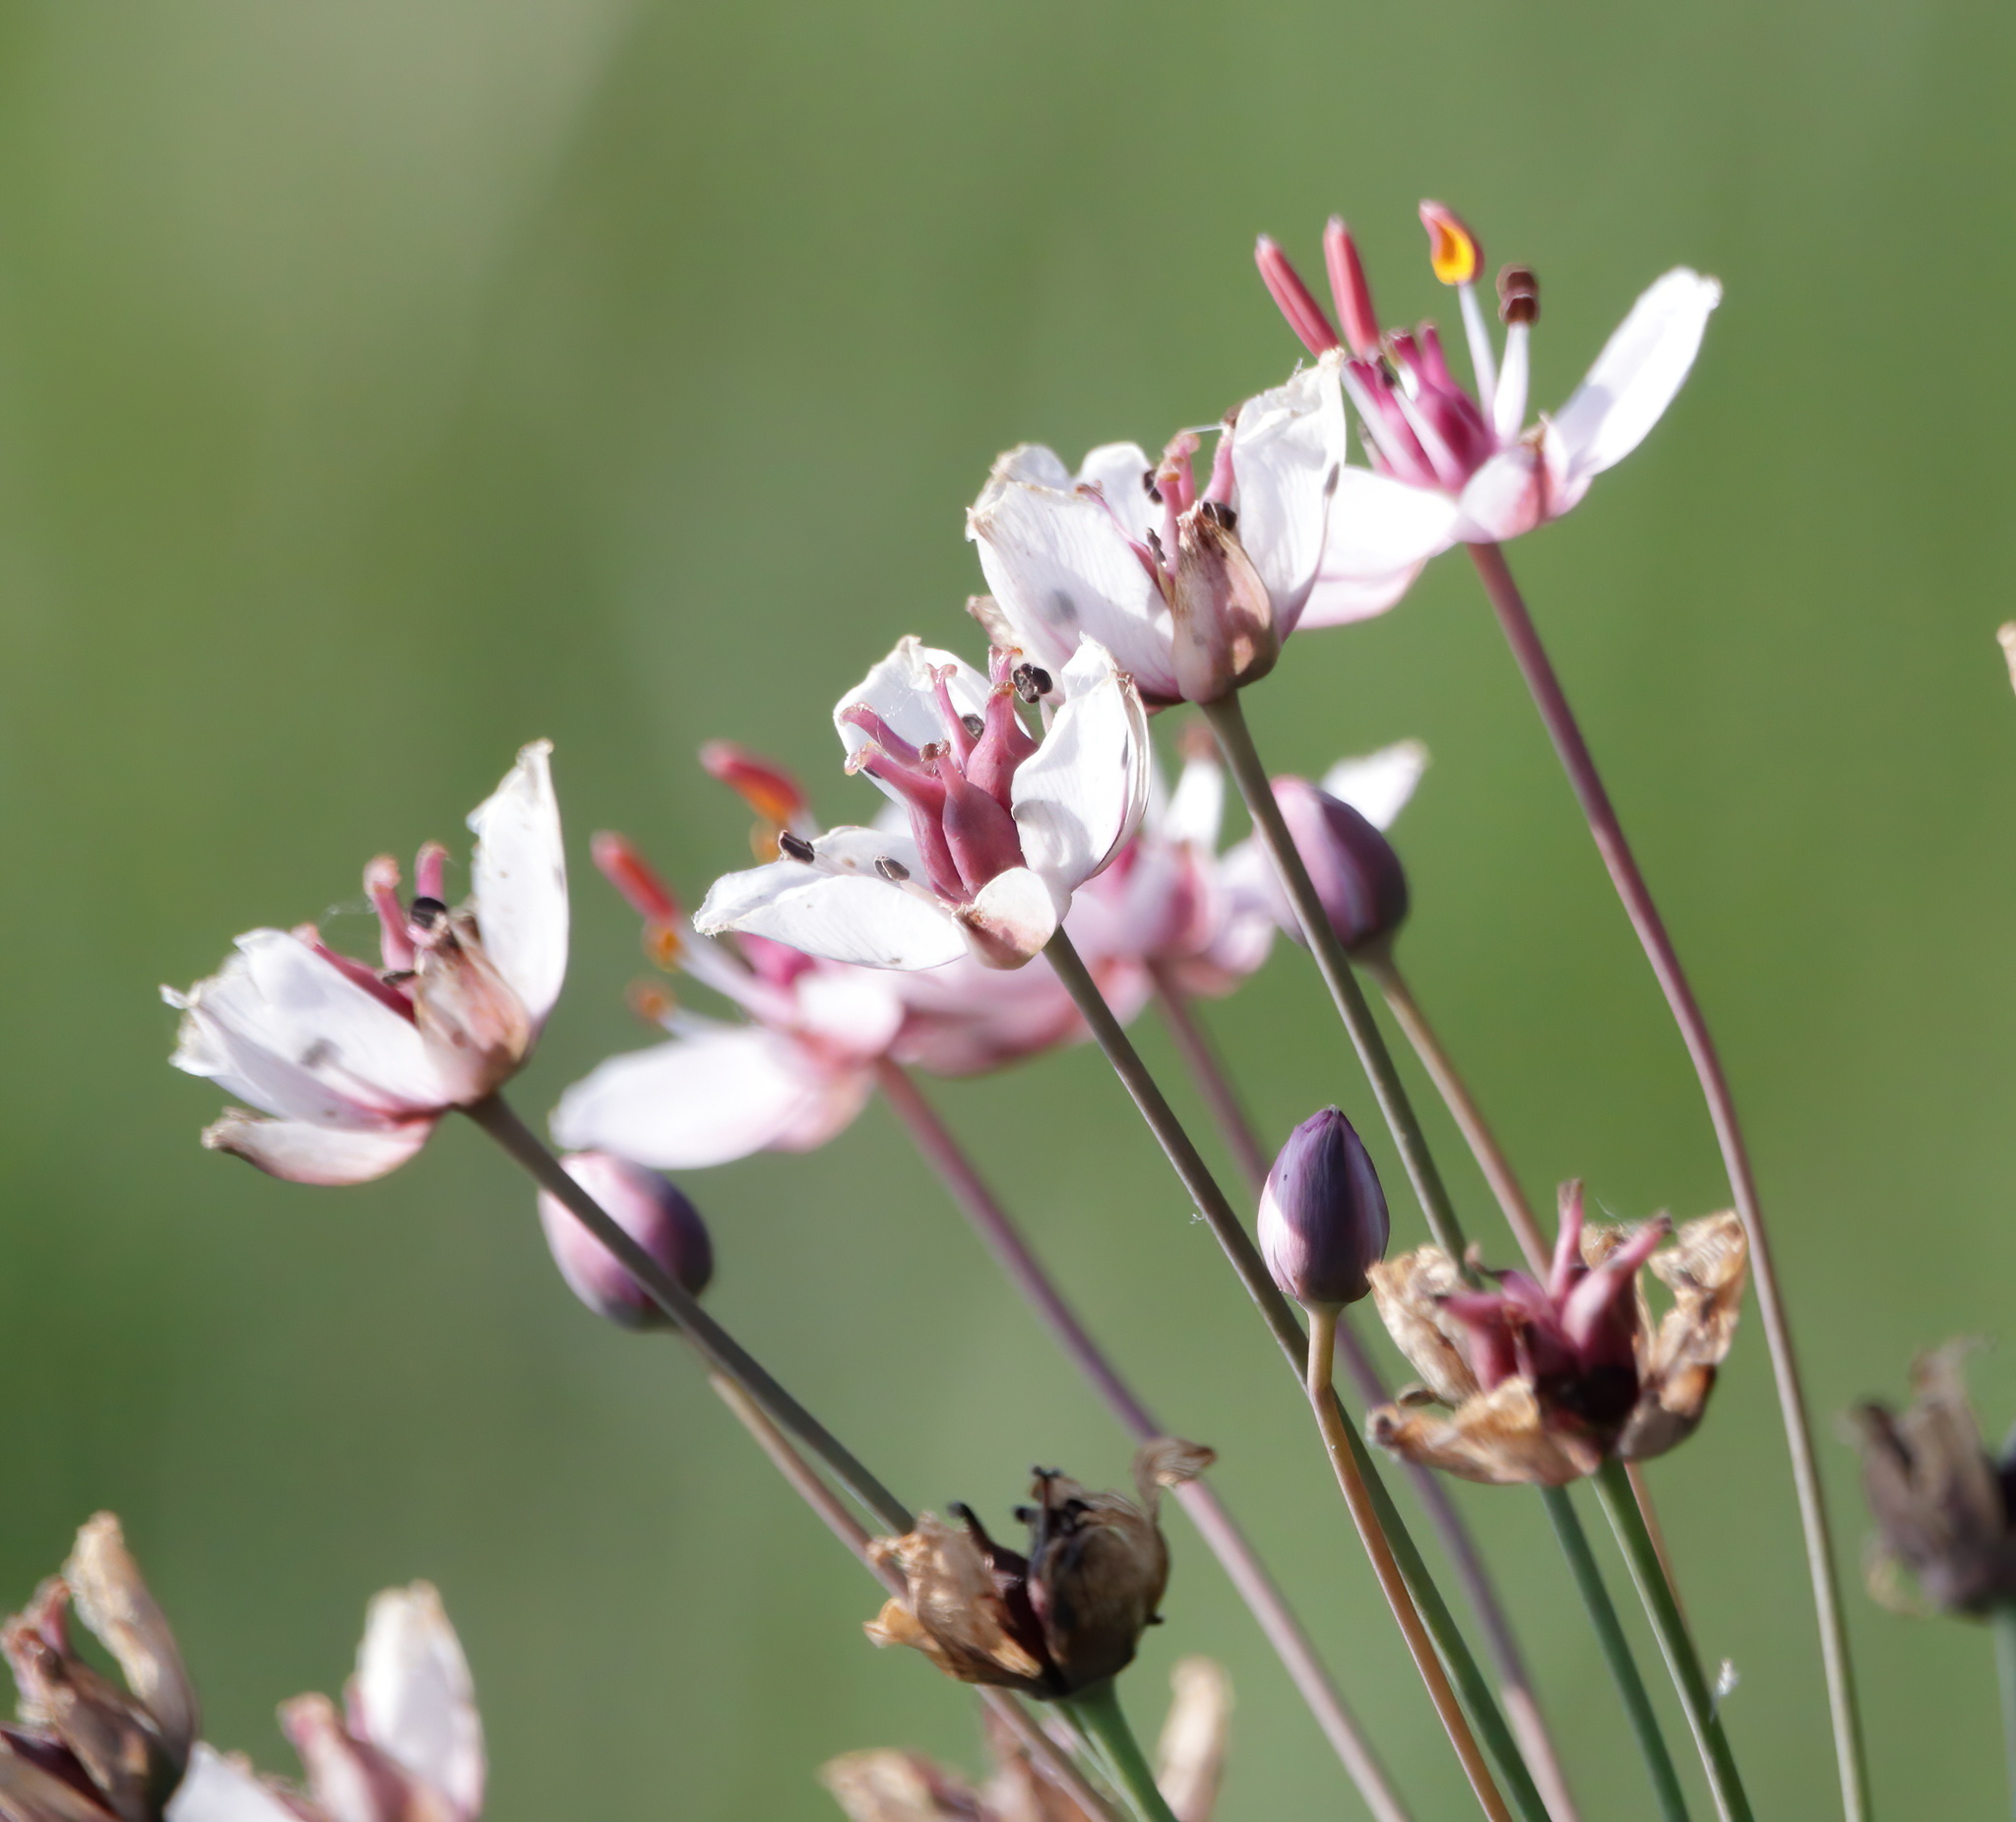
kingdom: Plantae
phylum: Tracheophyta
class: Liliopsida
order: Alismatales
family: Butomaceae
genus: Butomus
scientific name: Butomus umbellatus
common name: Flowering-rush
